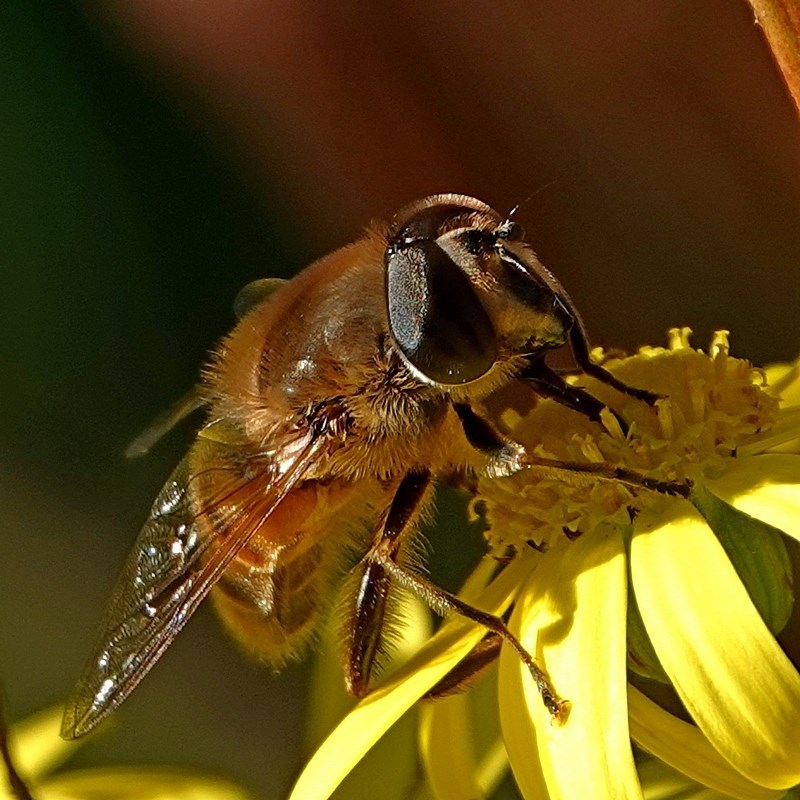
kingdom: Animalia
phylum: Arthropoda
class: Insecta
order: Diptera
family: Syrphidae
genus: Eristalis
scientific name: Eristalis tenax
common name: Drone fly
